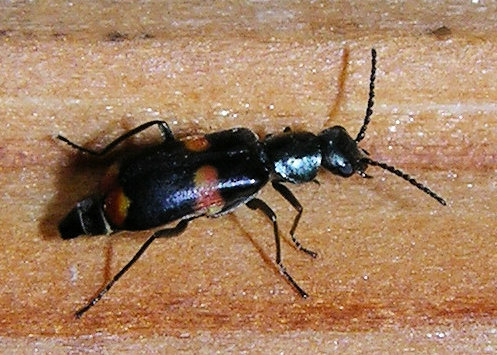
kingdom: Animalia
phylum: Arthropoda
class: Insecta
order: Coleoptera
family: Melyridae
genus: Anthocomus
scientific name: Anthocomus fasciatus
